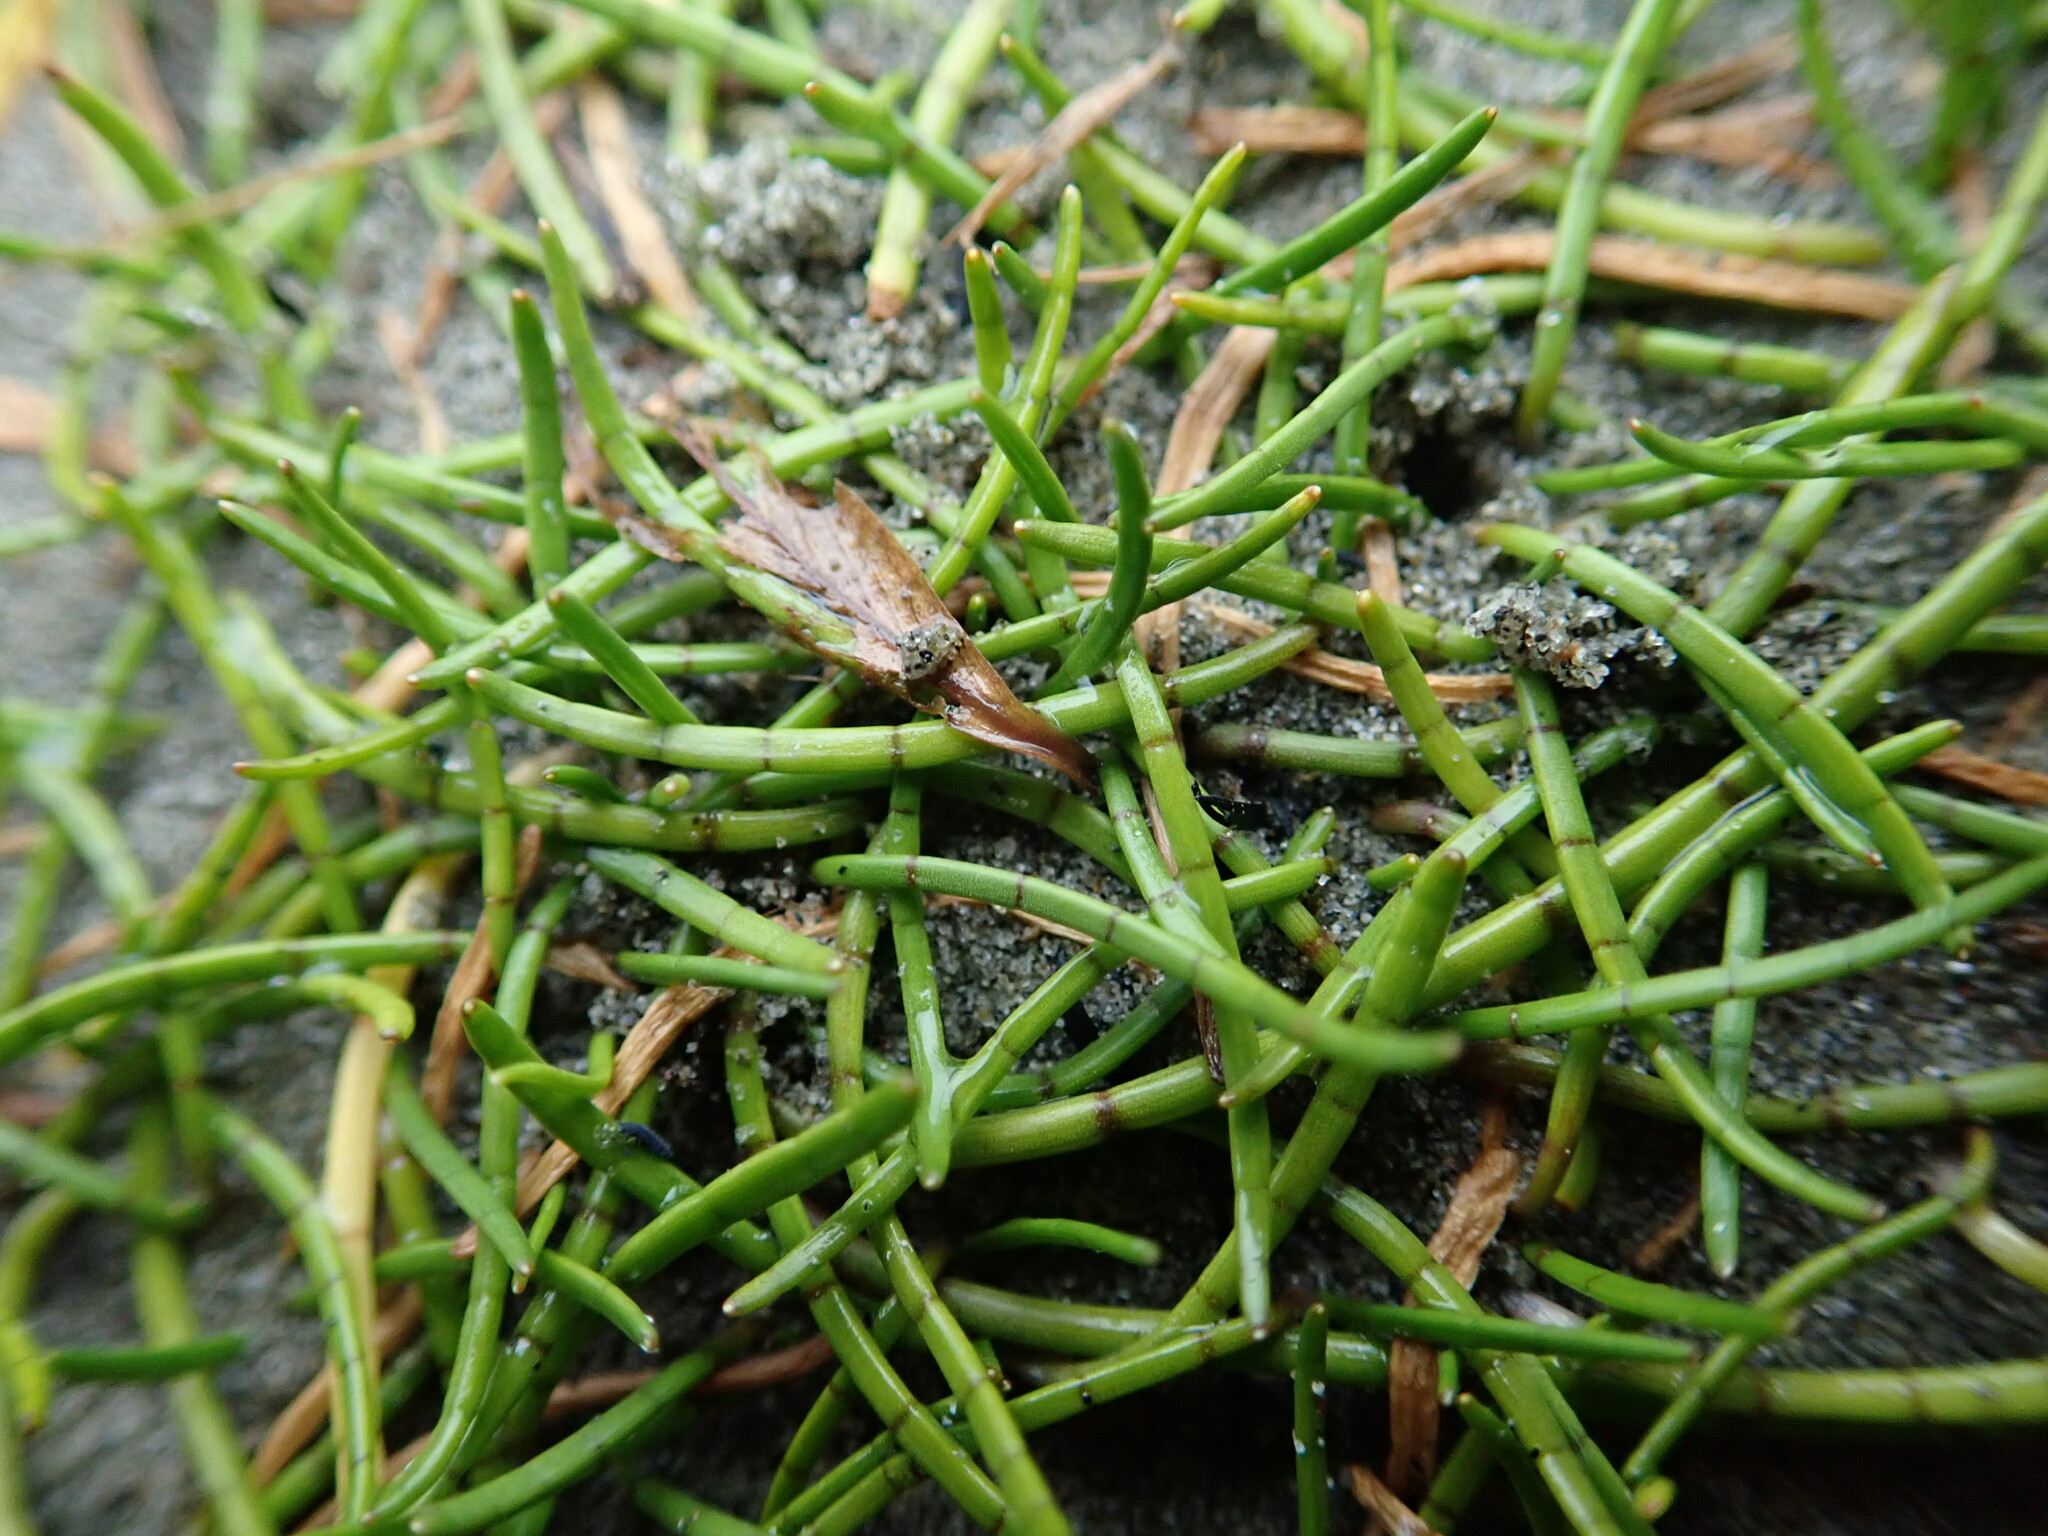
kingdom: Plantae
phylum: Tracheophyta
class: Magnoliopsida
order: Apiales
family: Apiaceae
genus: Lilaeopsis
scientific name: Lilaeopsis novae-zelandiae
